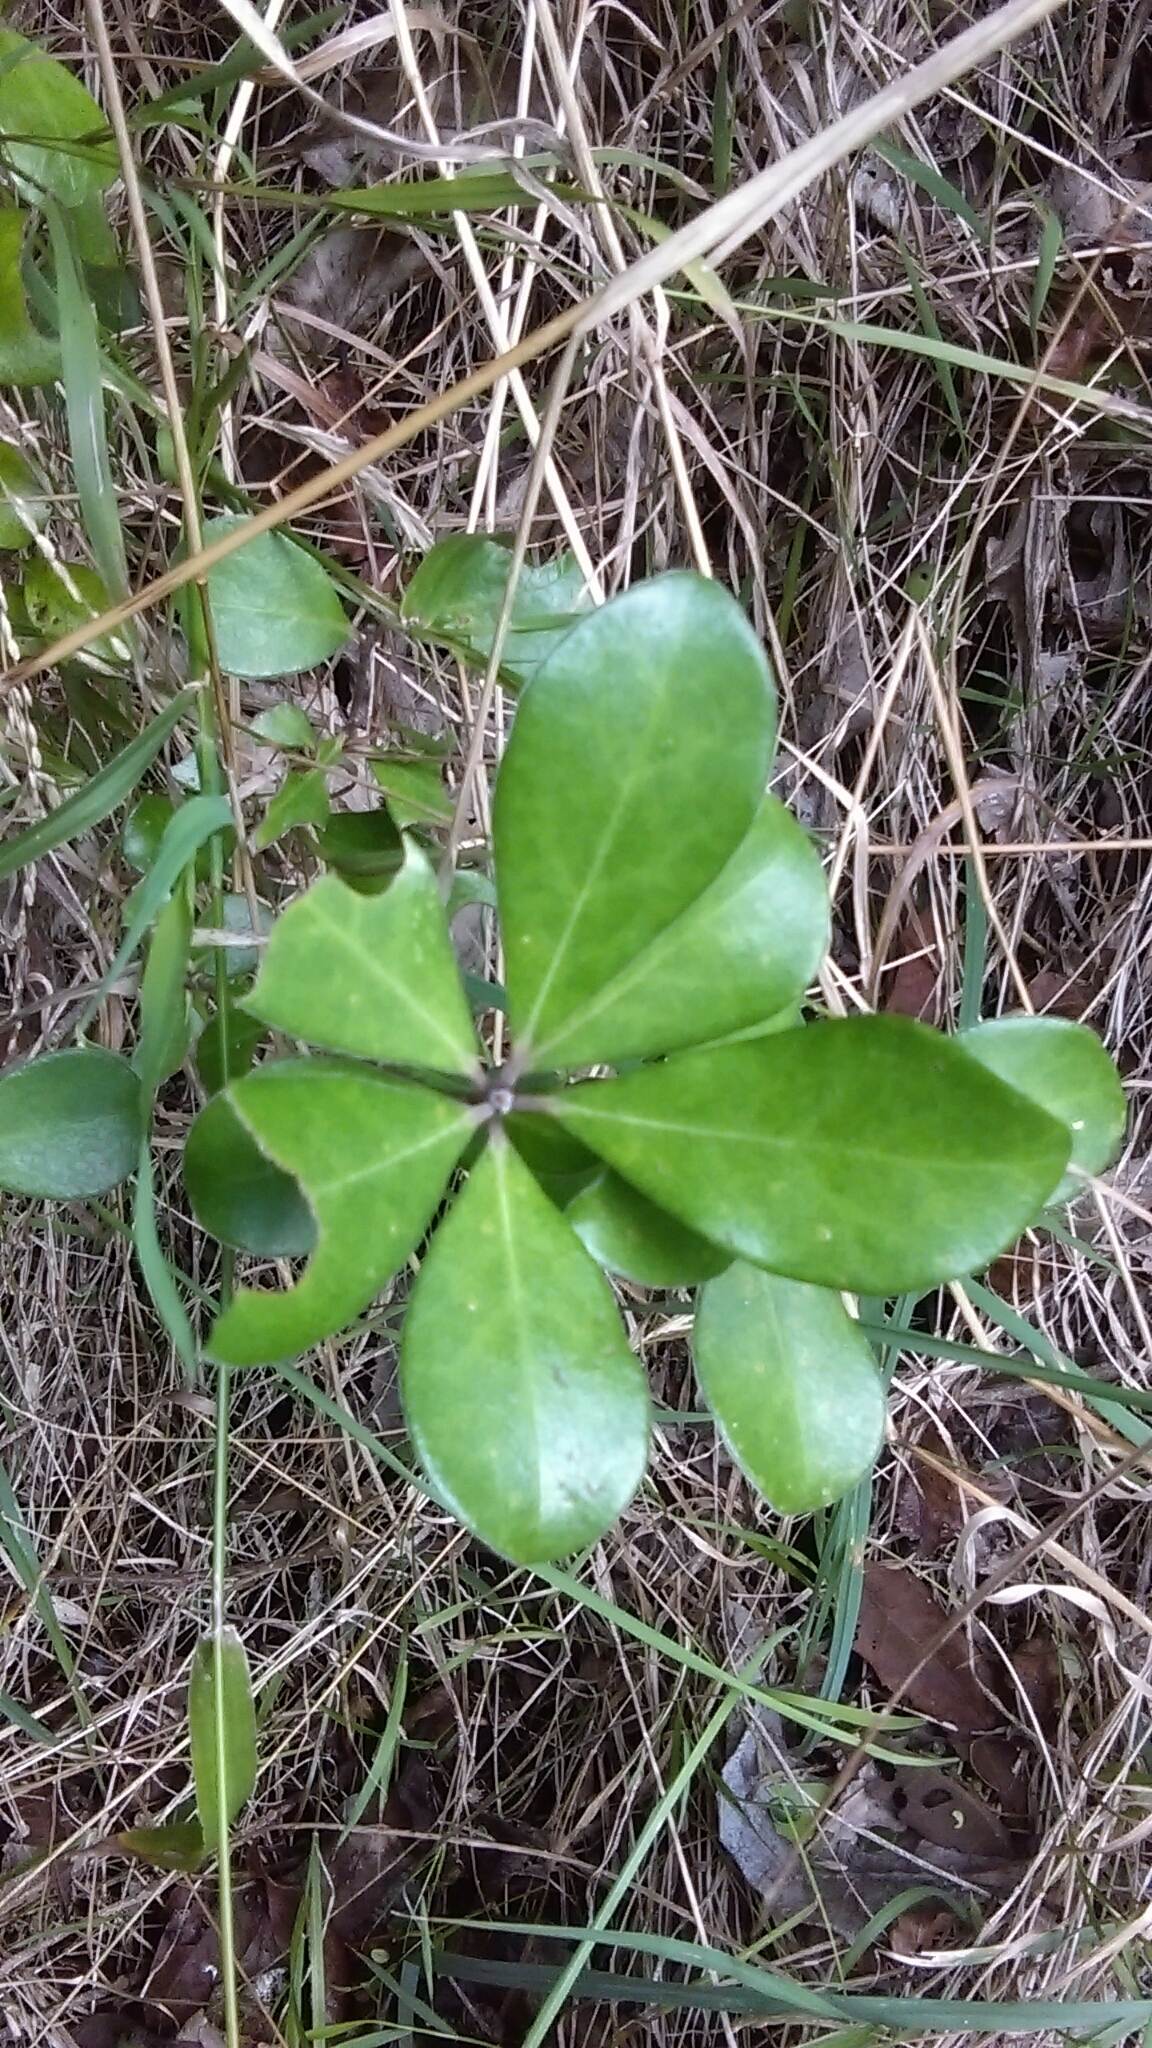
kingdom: Plantae
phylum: Tracheophyta
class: Magnoliopsida
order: Apiales
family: Pittosporaceae
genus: Pittosporum
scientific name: Pittosporum crassifolium
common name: Karo
